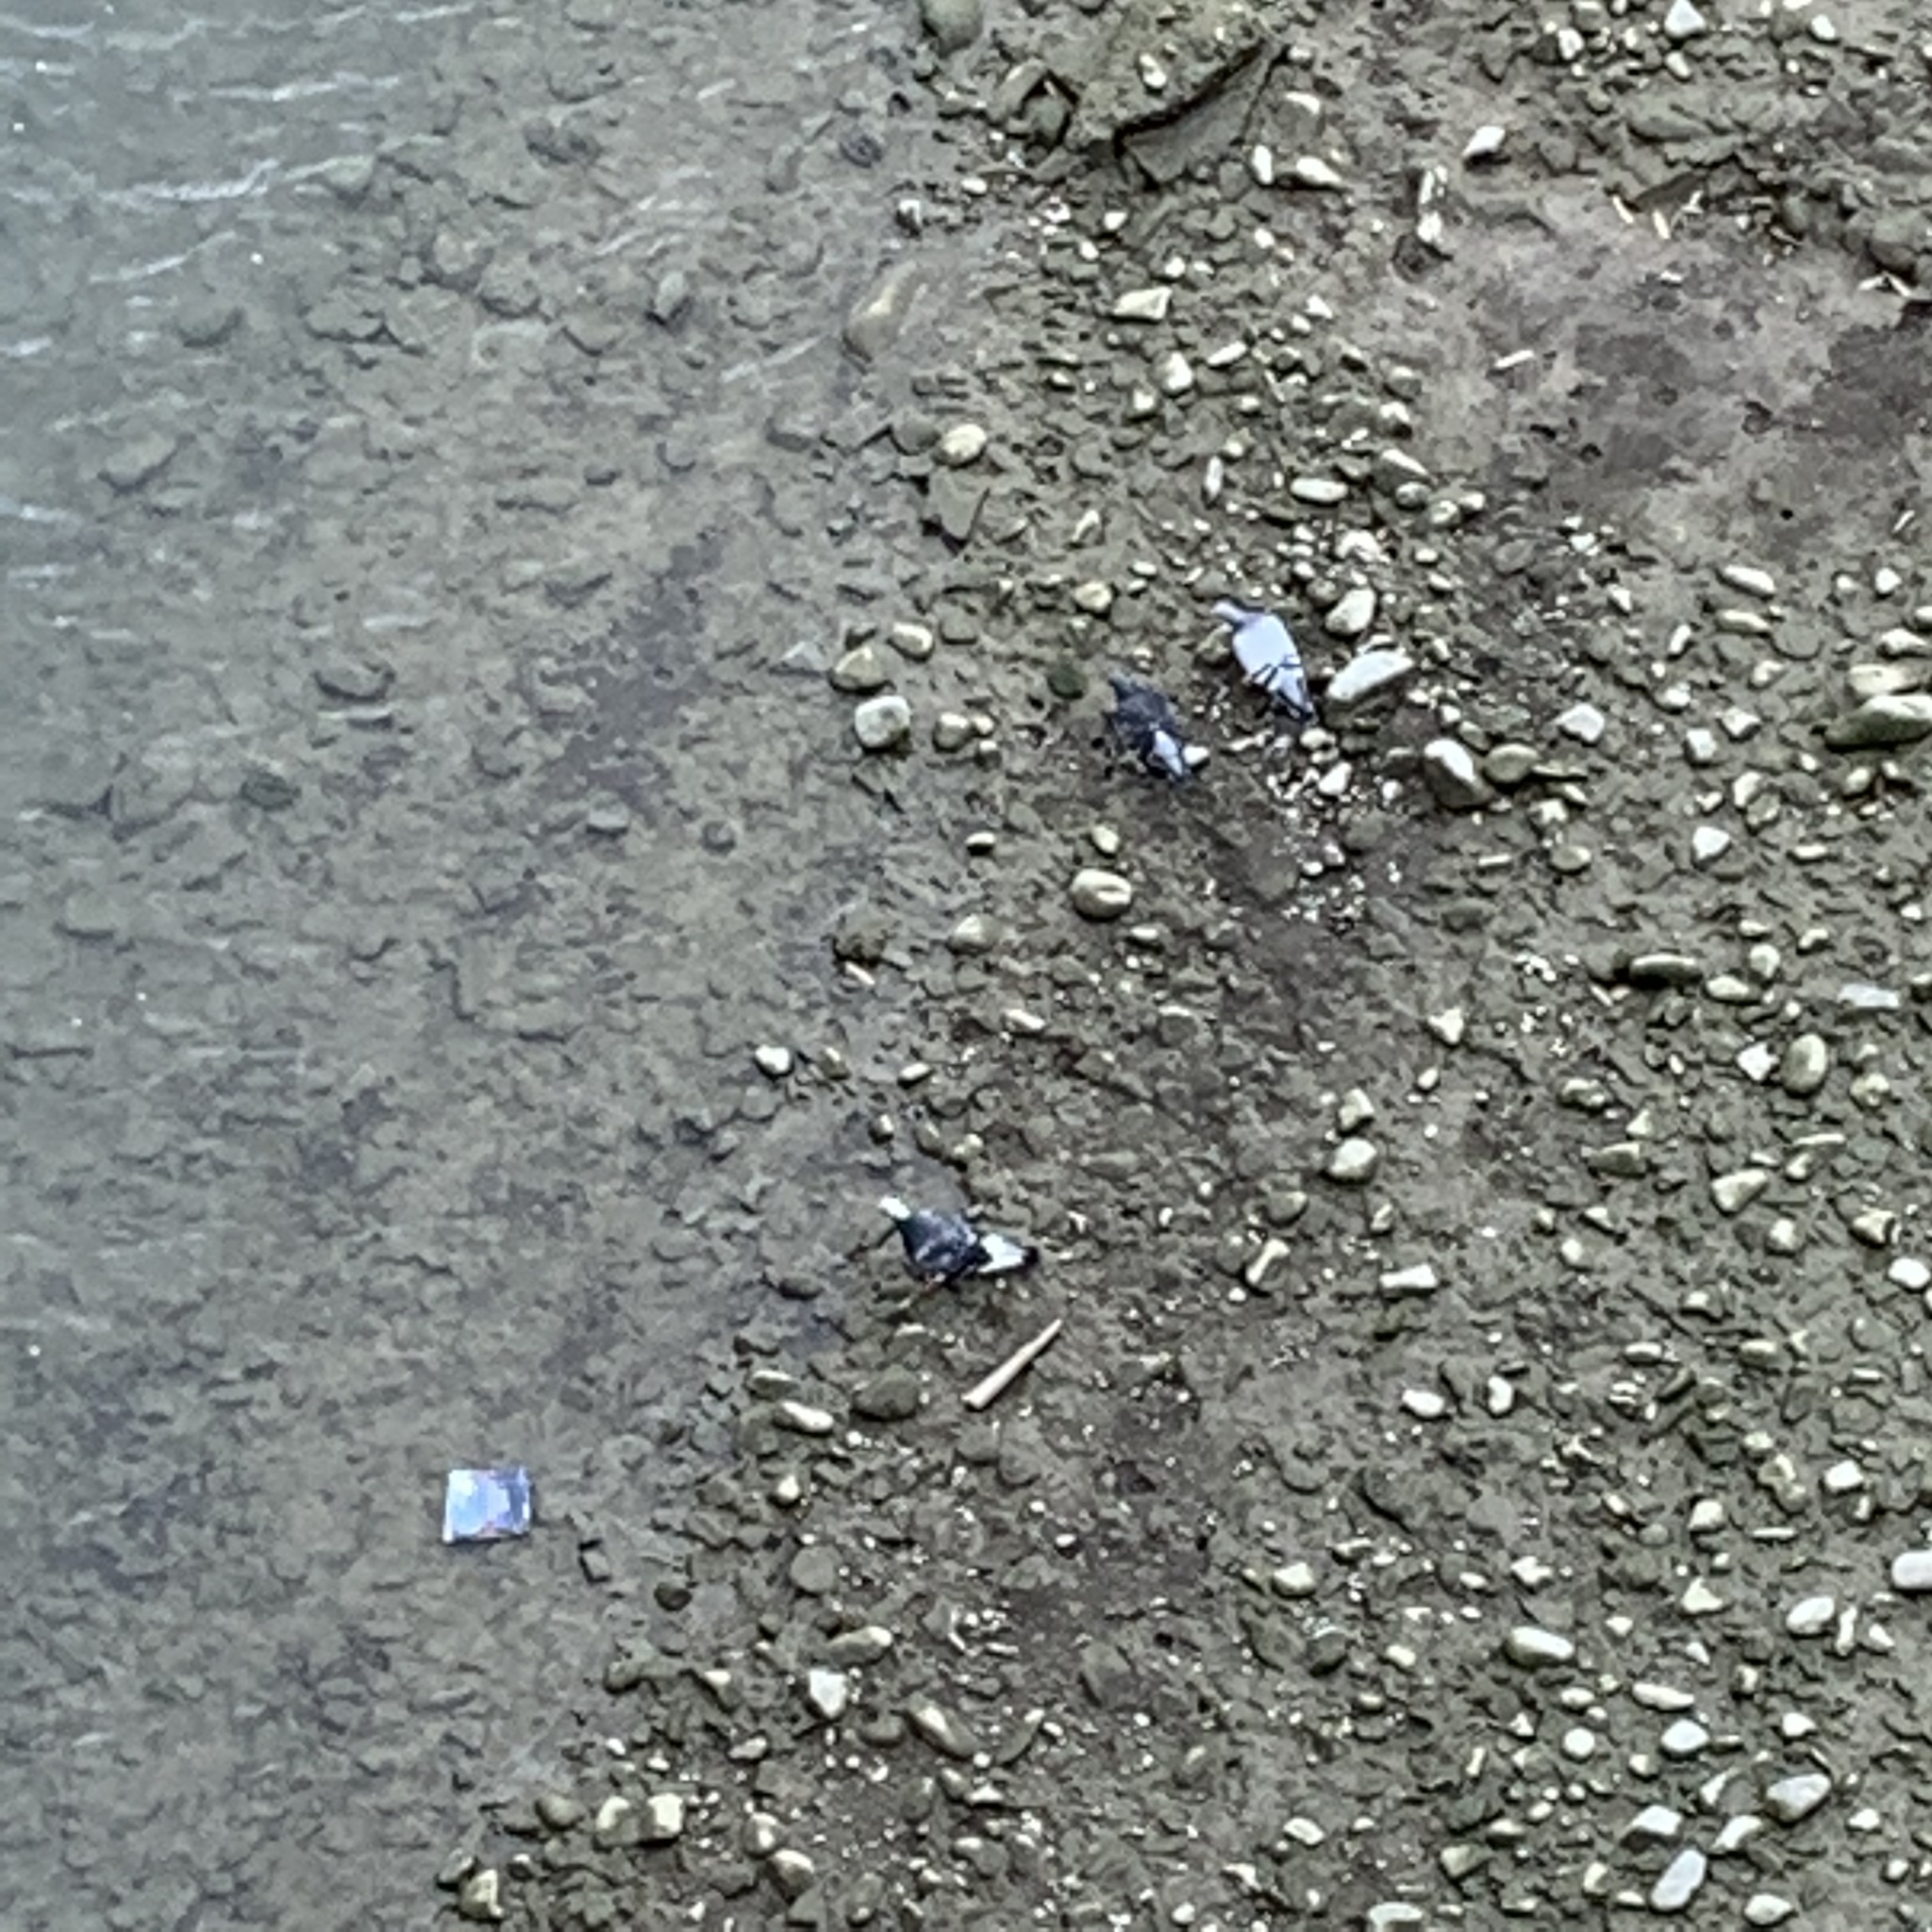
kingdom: Animalia
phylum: Chordata
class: Aves
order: Columbiformes
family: Columbidae
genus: Columba
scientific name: Columba livia
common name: Rock pigeon
